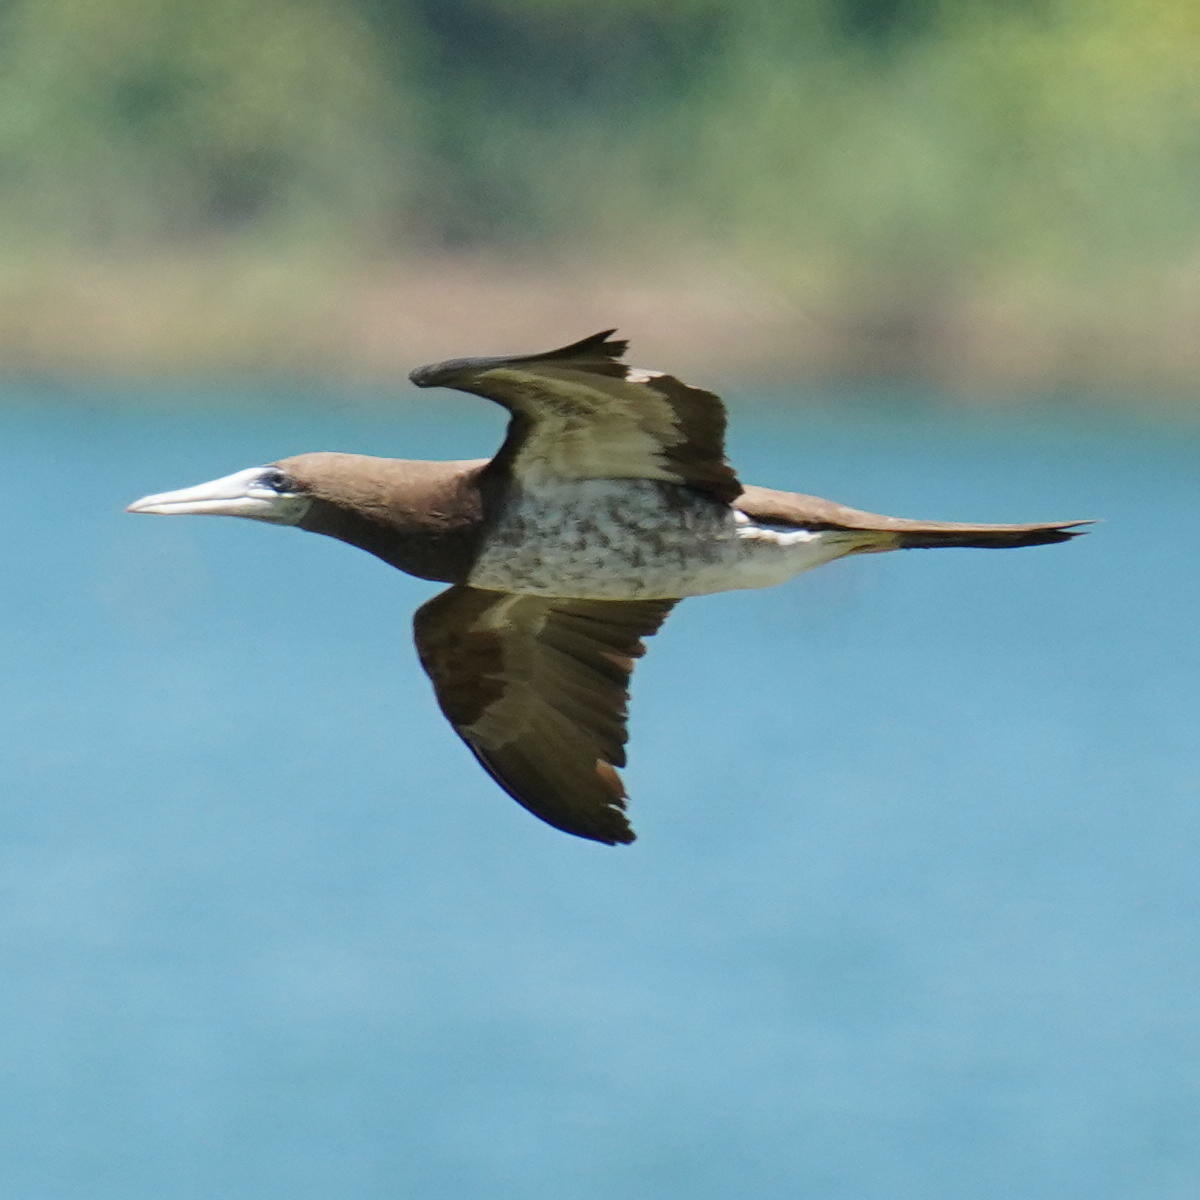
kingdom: Animalia
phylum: Chordata
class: Aves
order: Suliformes
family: Sulidae
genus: Sula
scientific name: Sula leucogaster
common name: Brown booby
